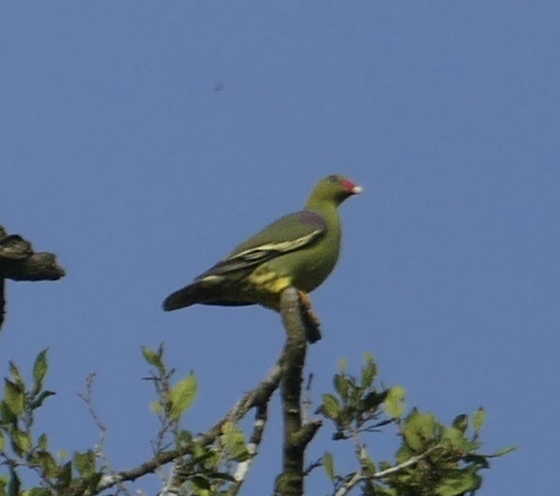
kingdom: Animalia
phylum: Chordata
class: Aves
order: Columbiformes
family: Columbidae
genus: Treron
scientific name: Treron calvus
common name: African green pigeon
